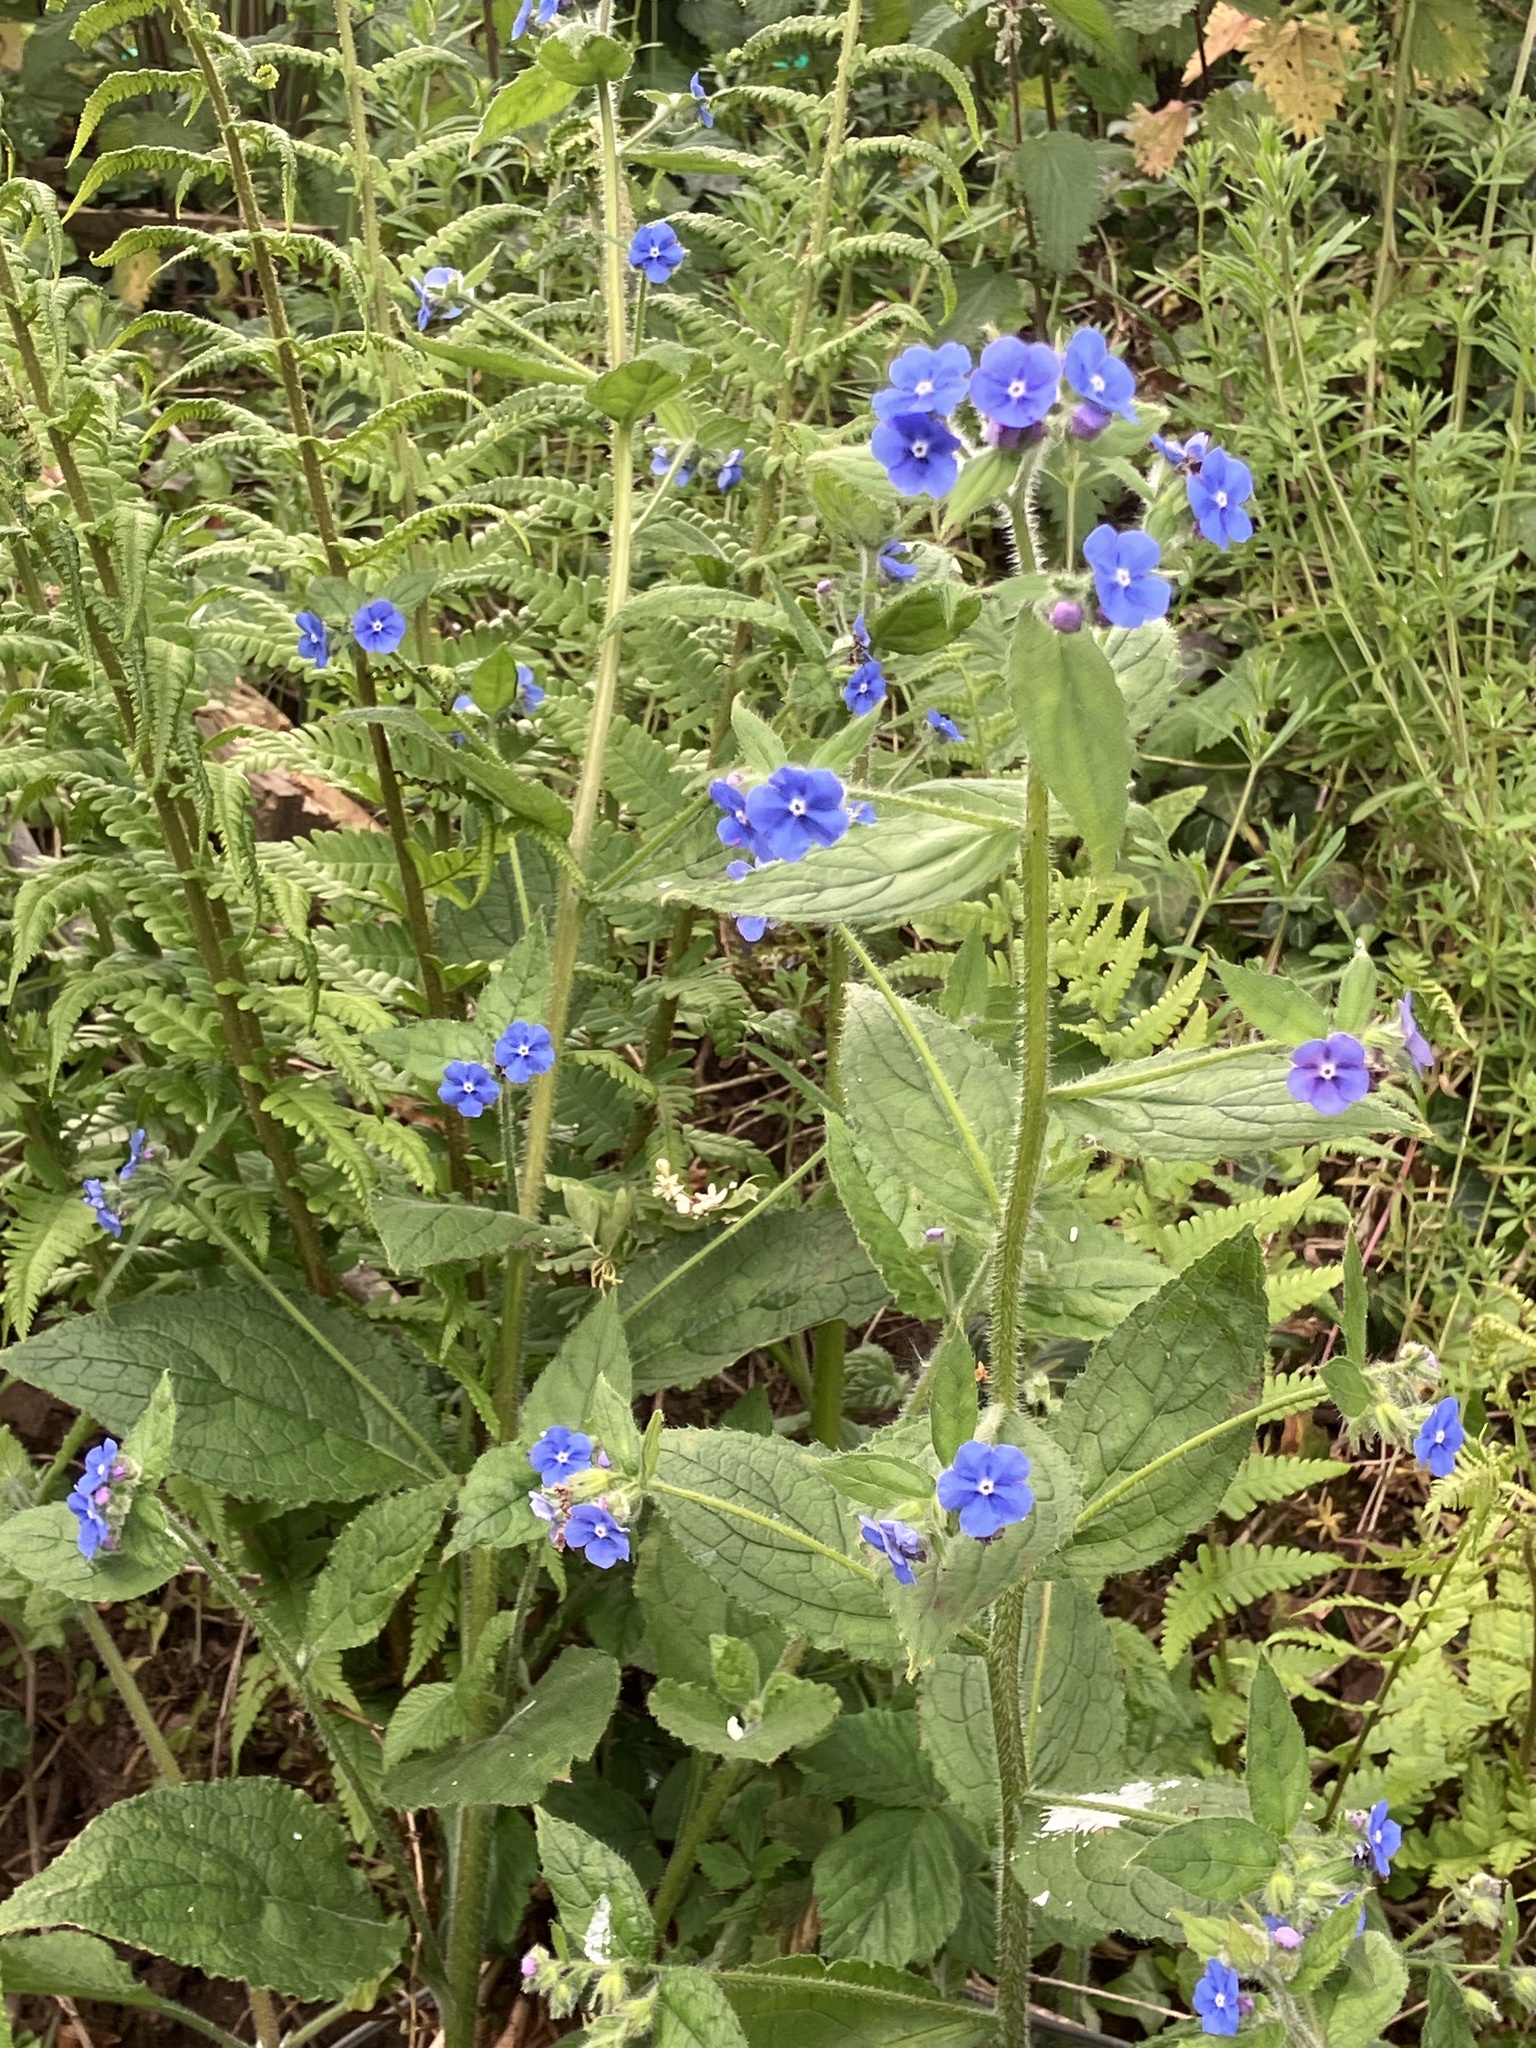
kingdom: Plantae
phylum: Tracheophyta
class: Magnoliopsida
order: Boraginales
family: Boraginaceae
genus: Pentaglottis
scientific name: Pentaglottis sempervirens
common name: Green alkanet
